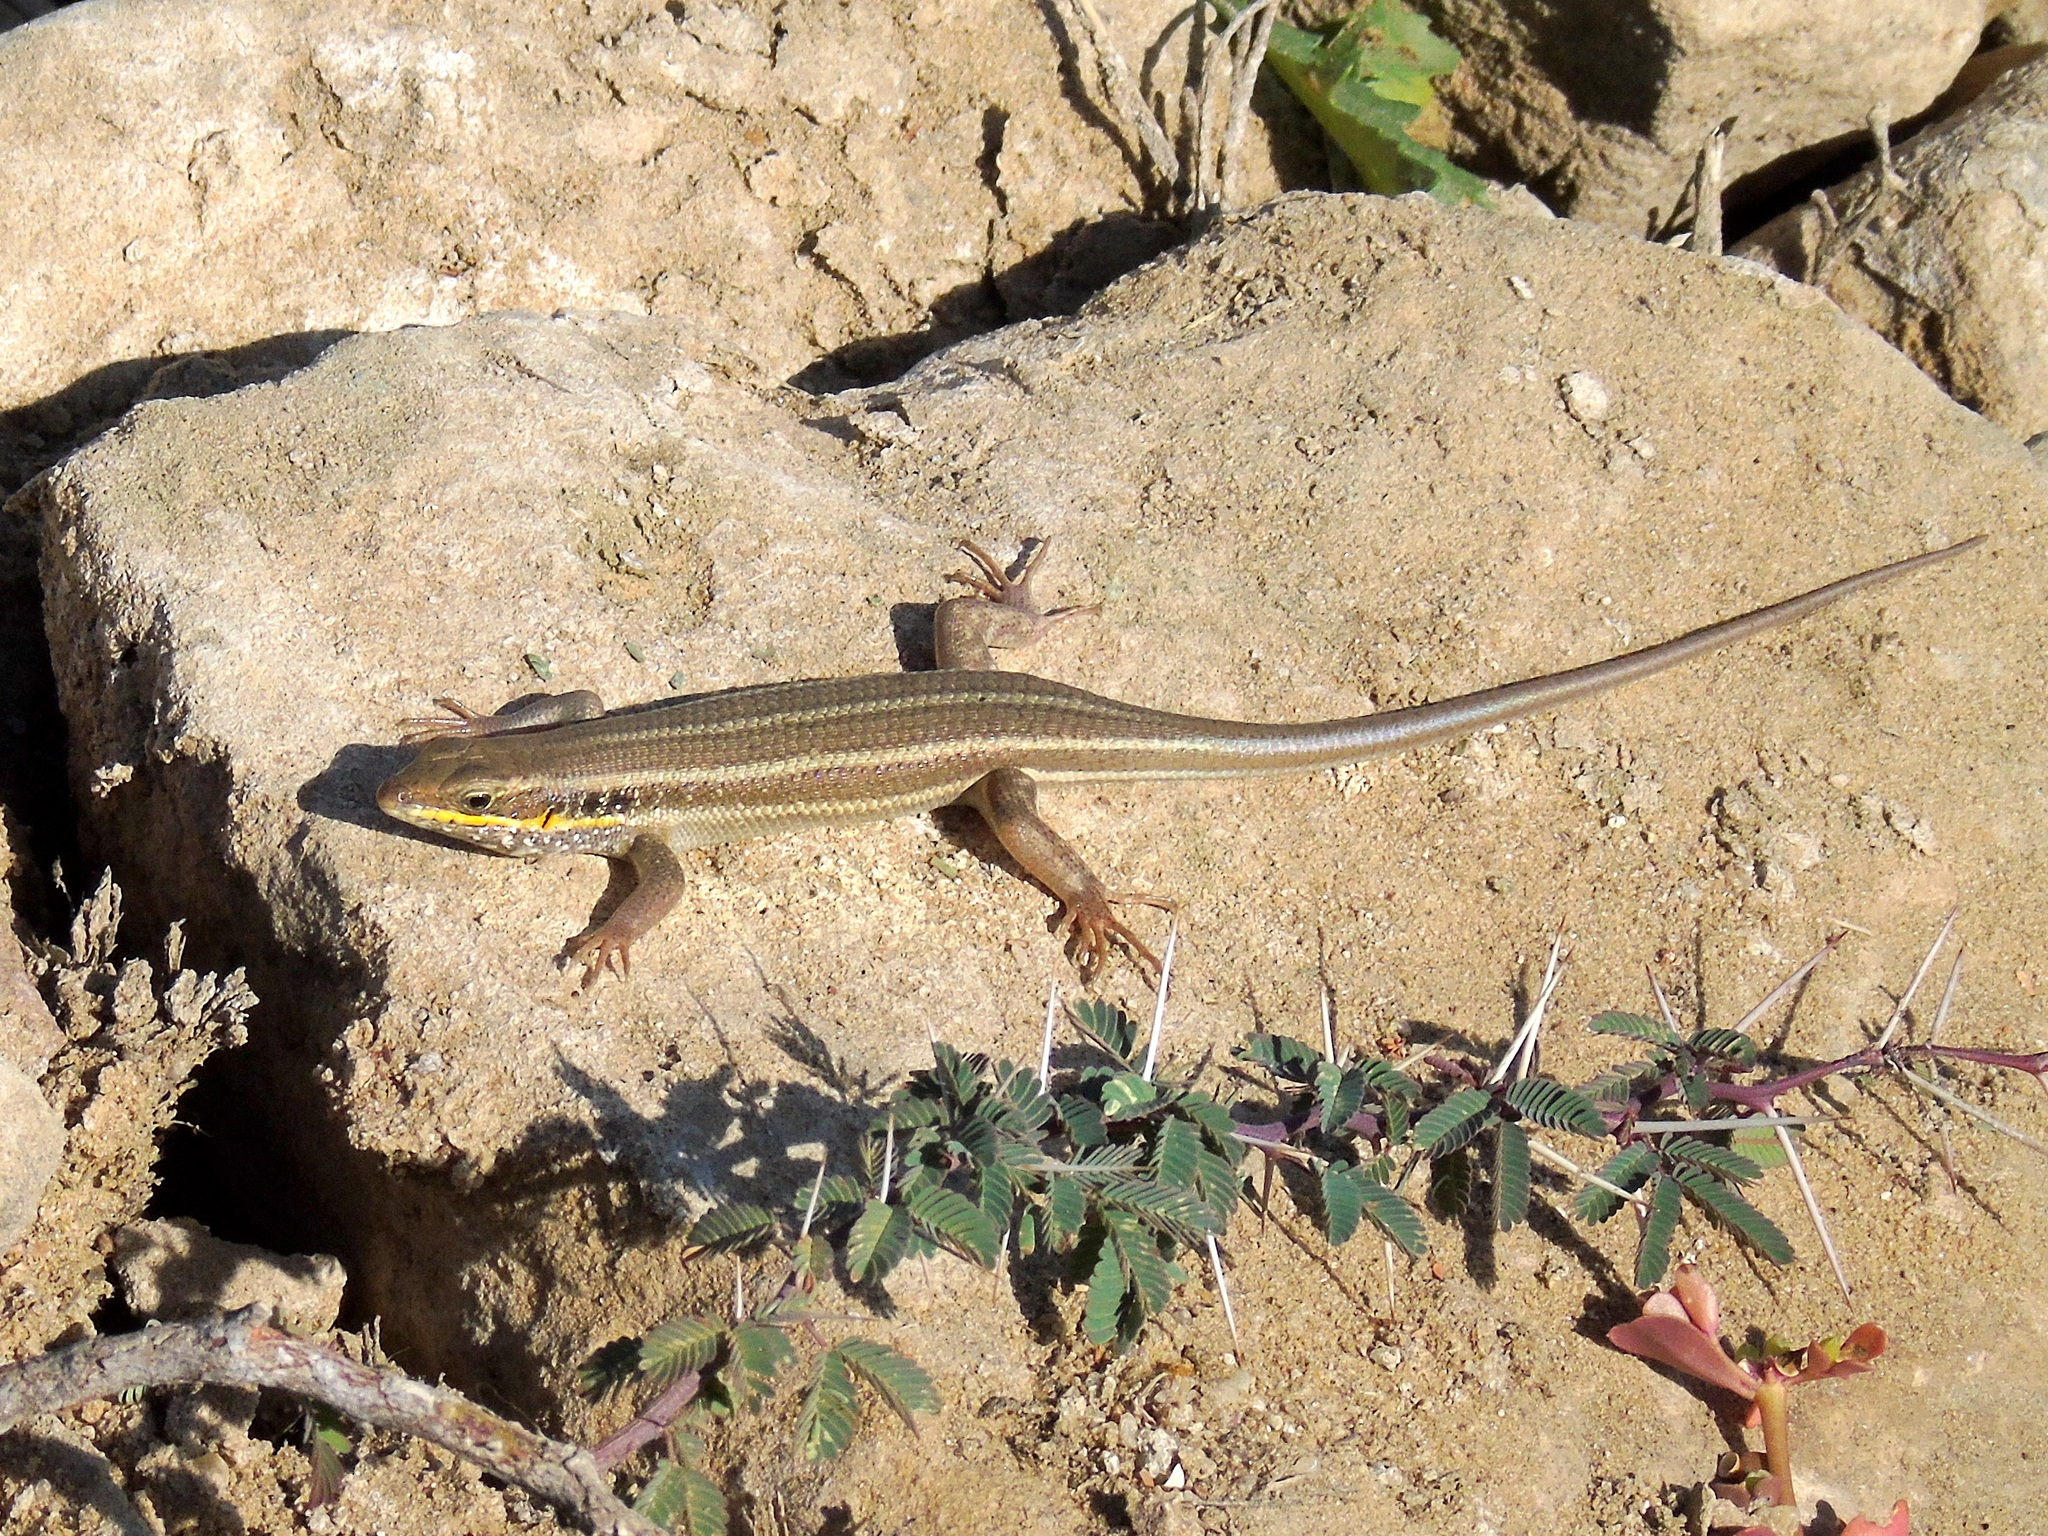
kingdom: Animalia
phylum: Chordata
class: Squamata
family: Scincidae
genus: Trachylepis
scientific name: Trachylepis quinquetaeniata
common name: African five-lined skink
